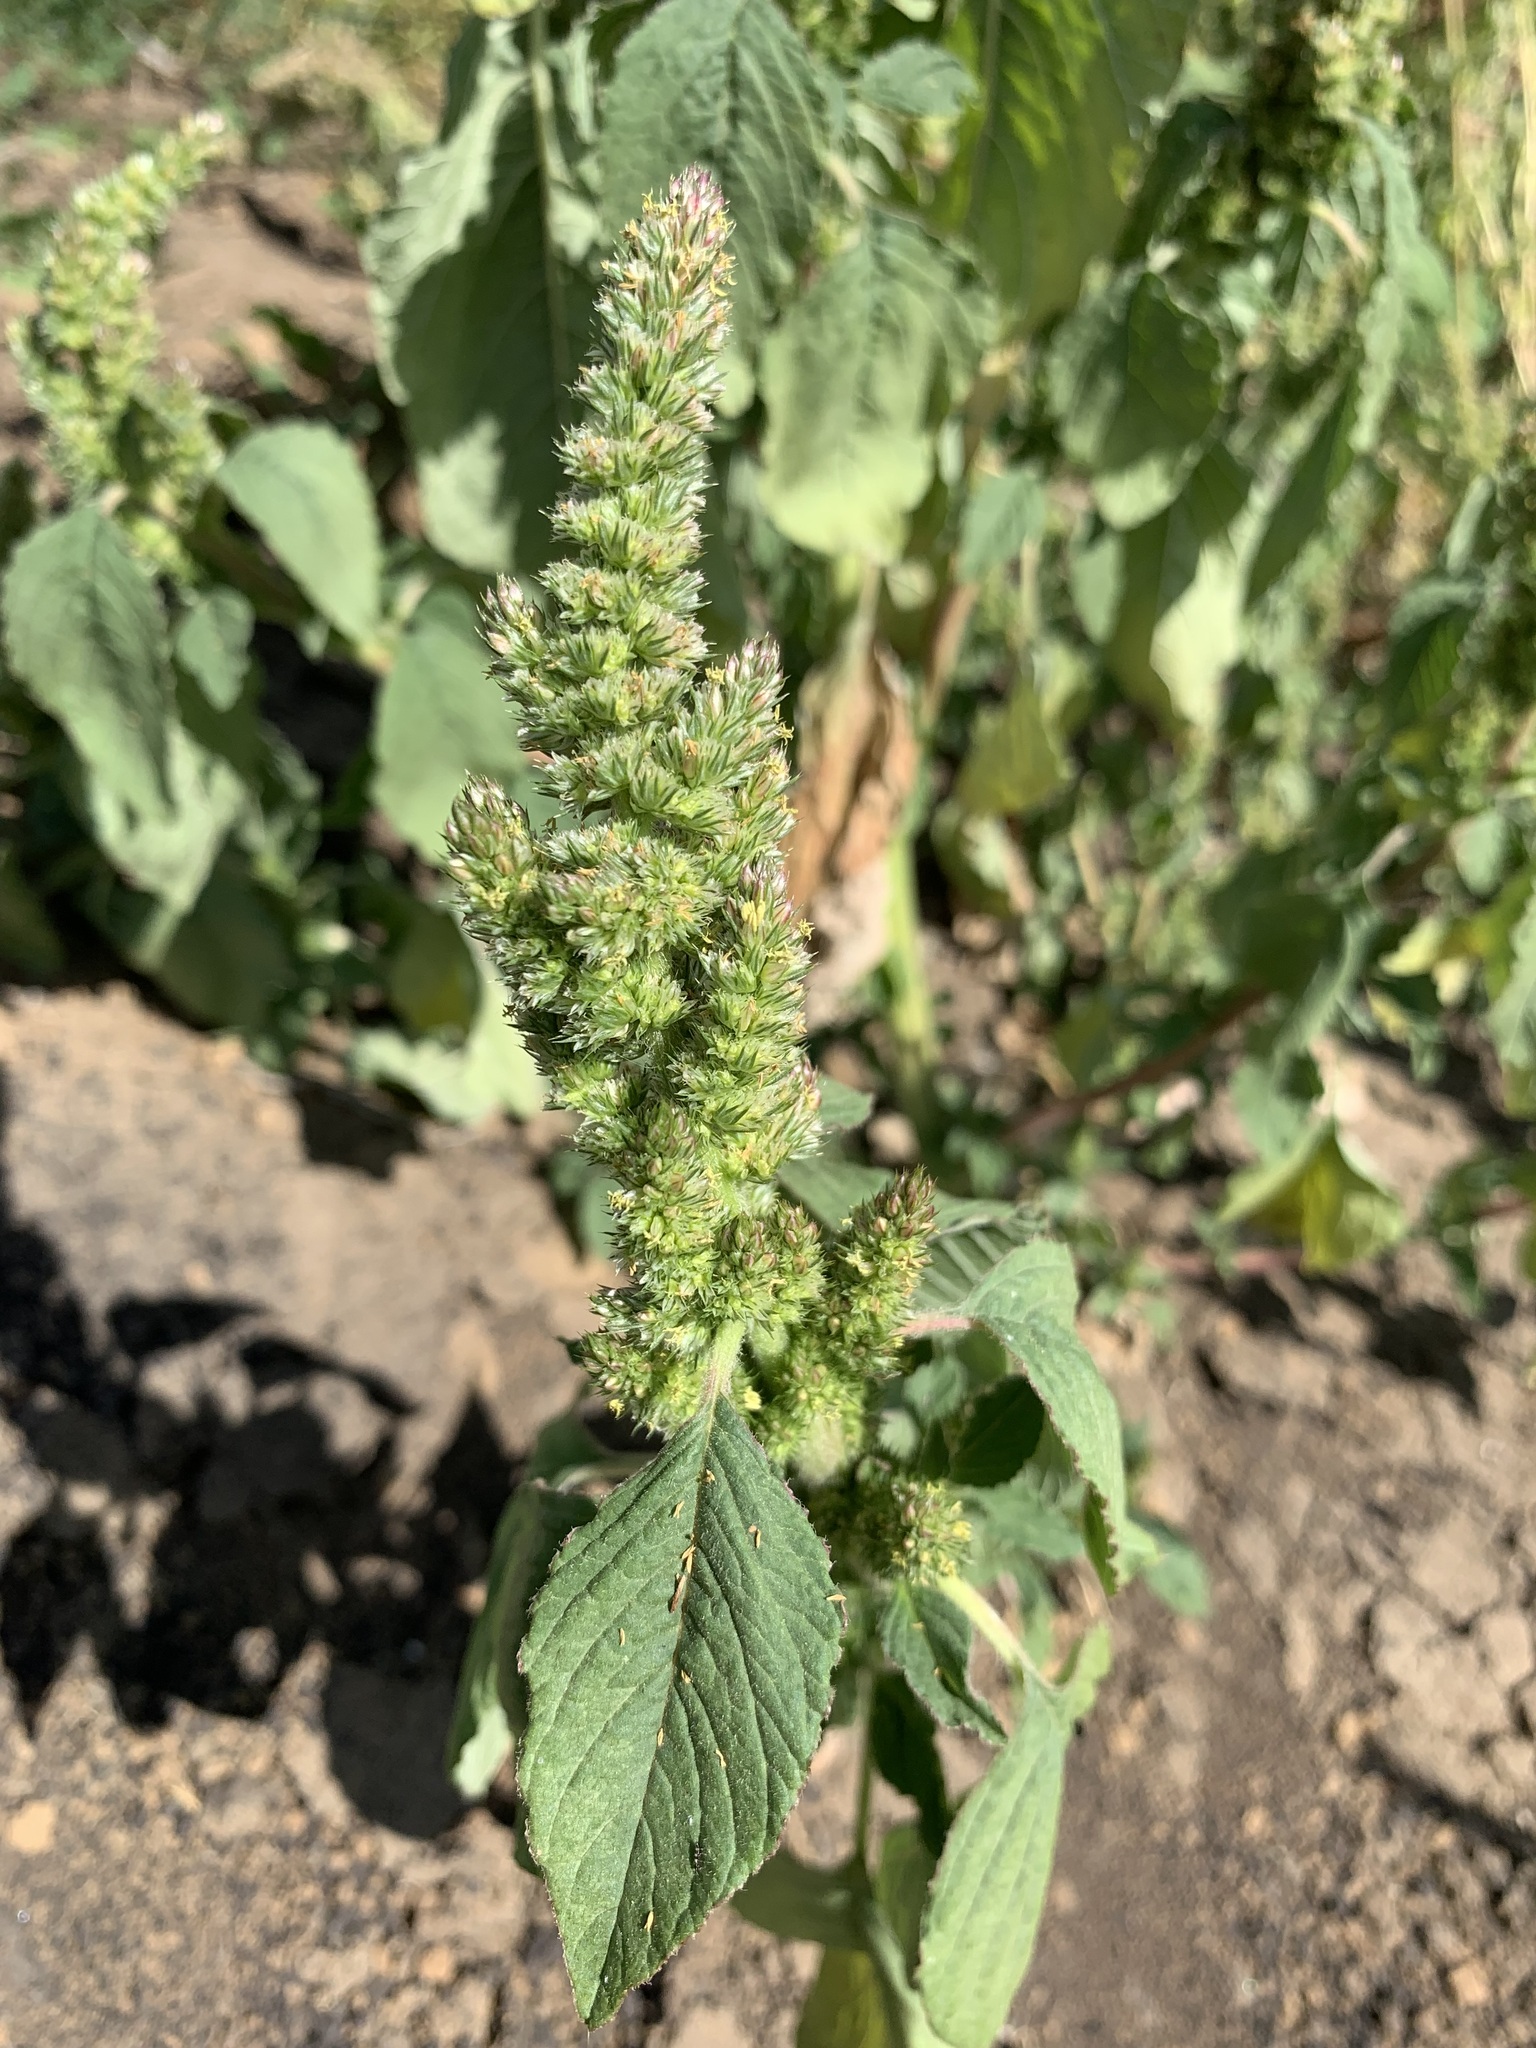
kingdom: Plantae
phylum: Tracheophyta
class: Magnoliopsida
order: Caryophyllales
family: Amaranthaceae
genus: Amaranthus
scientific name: Amaranthus retroflexus
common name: Redroot amaranth
